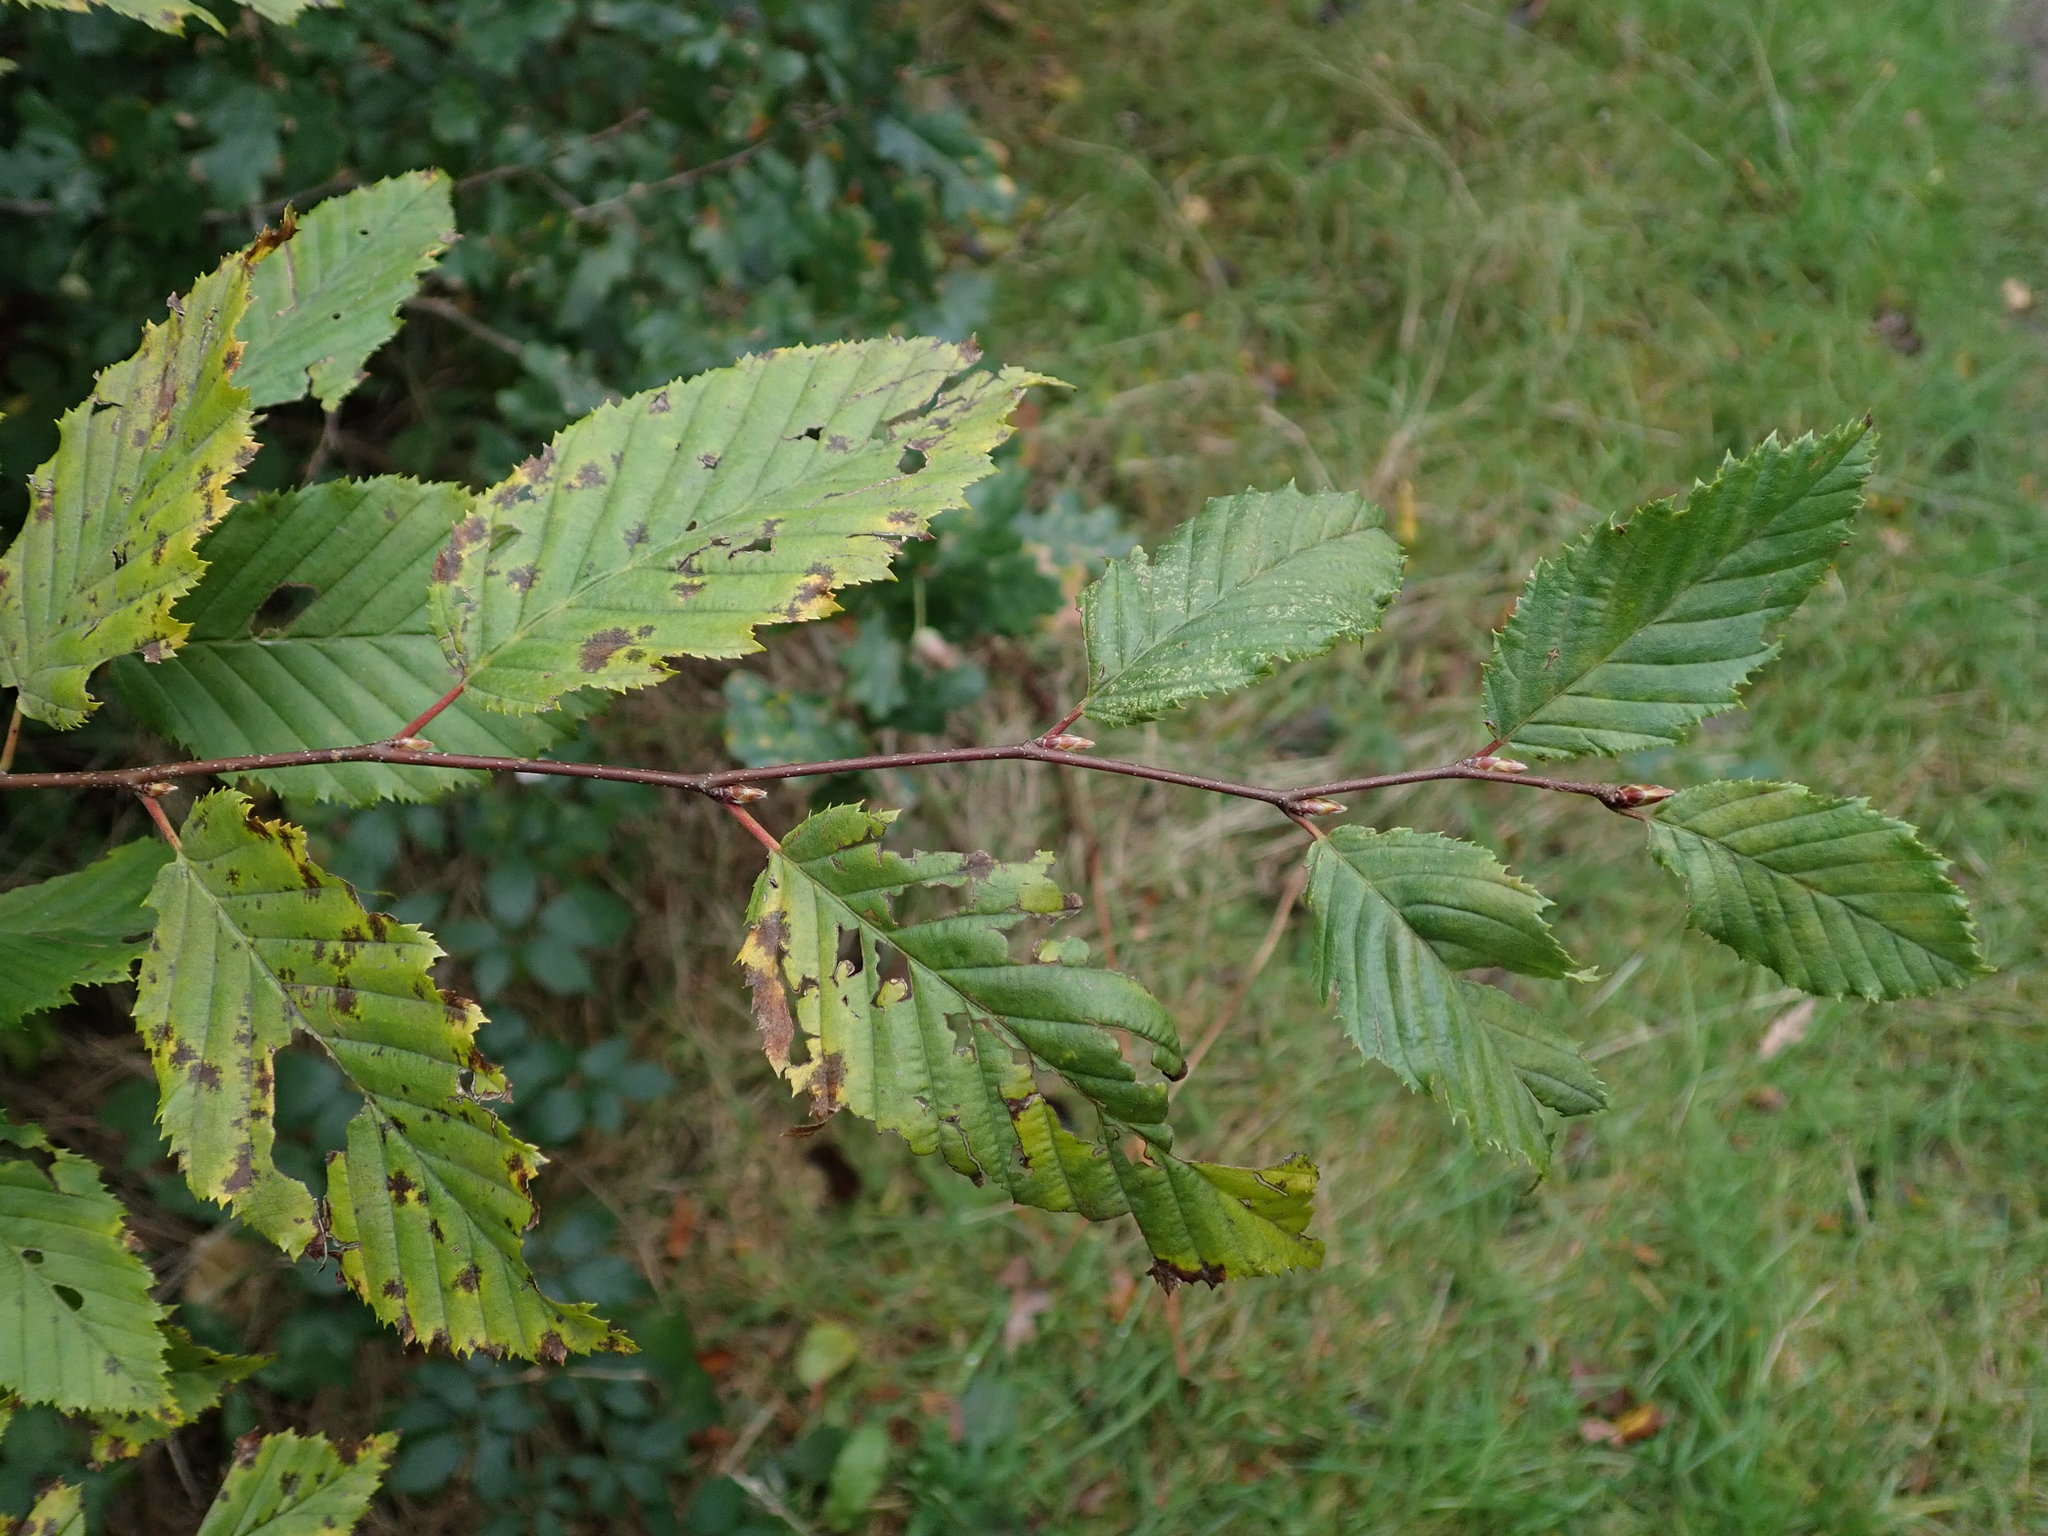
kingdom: Plantae
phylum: Tracheophyta
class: Magnoliopsida
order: Fagales
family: Betulaceae
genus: Carpinus
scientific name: Carpinus betulus
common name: Hornbeam
